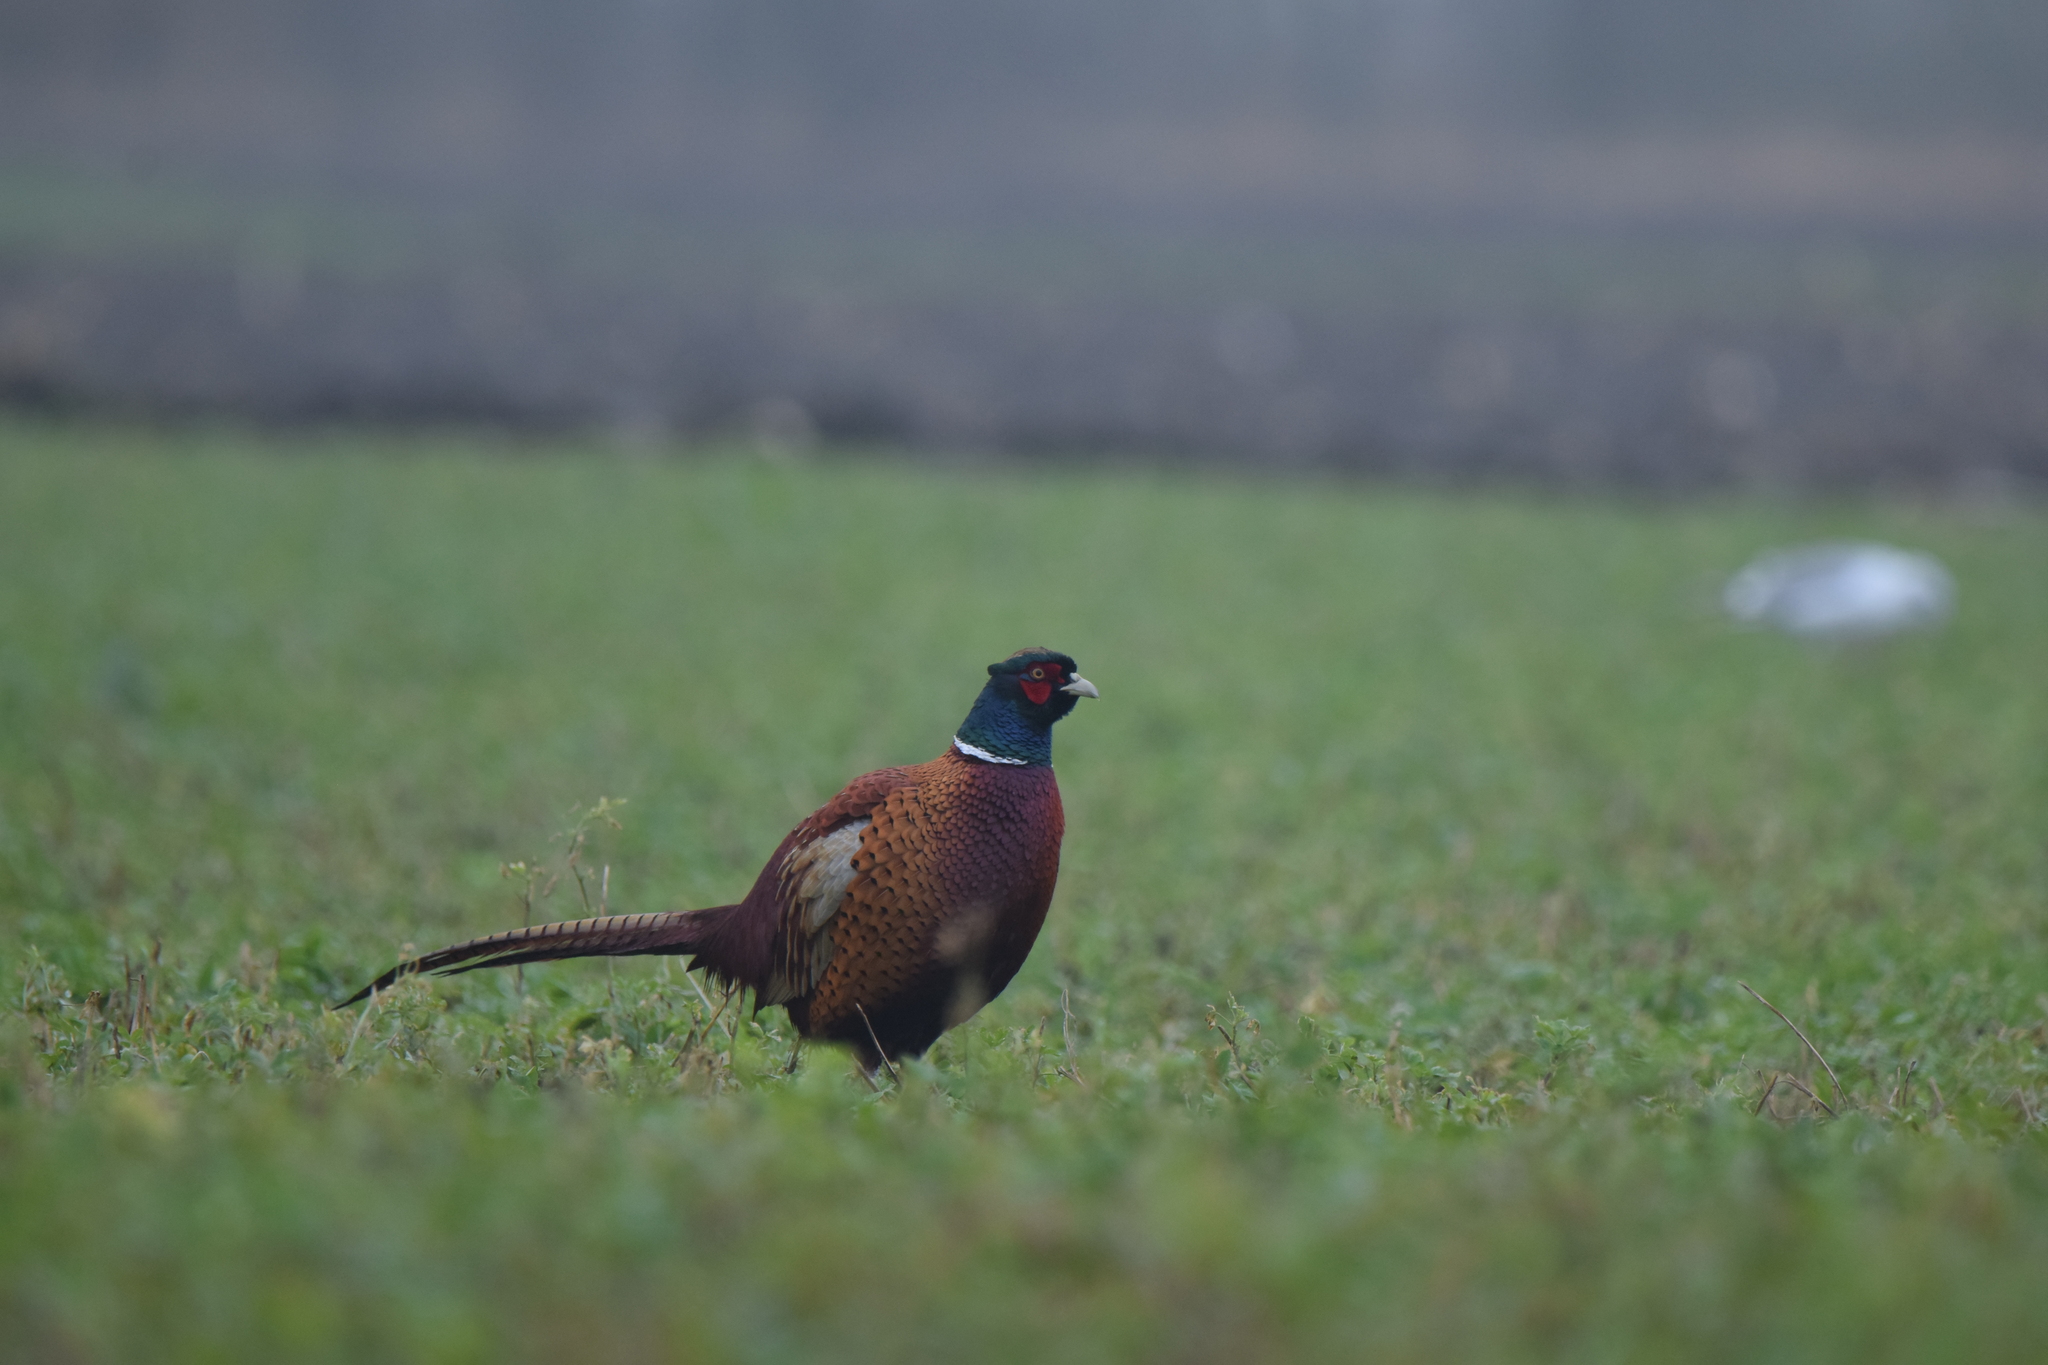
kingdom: Animalia
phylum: Chordata
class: Aves
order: Galliformes
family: Phasianidae
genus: Phasianus
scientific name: Phasianus colchicus
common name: Common pheasant
